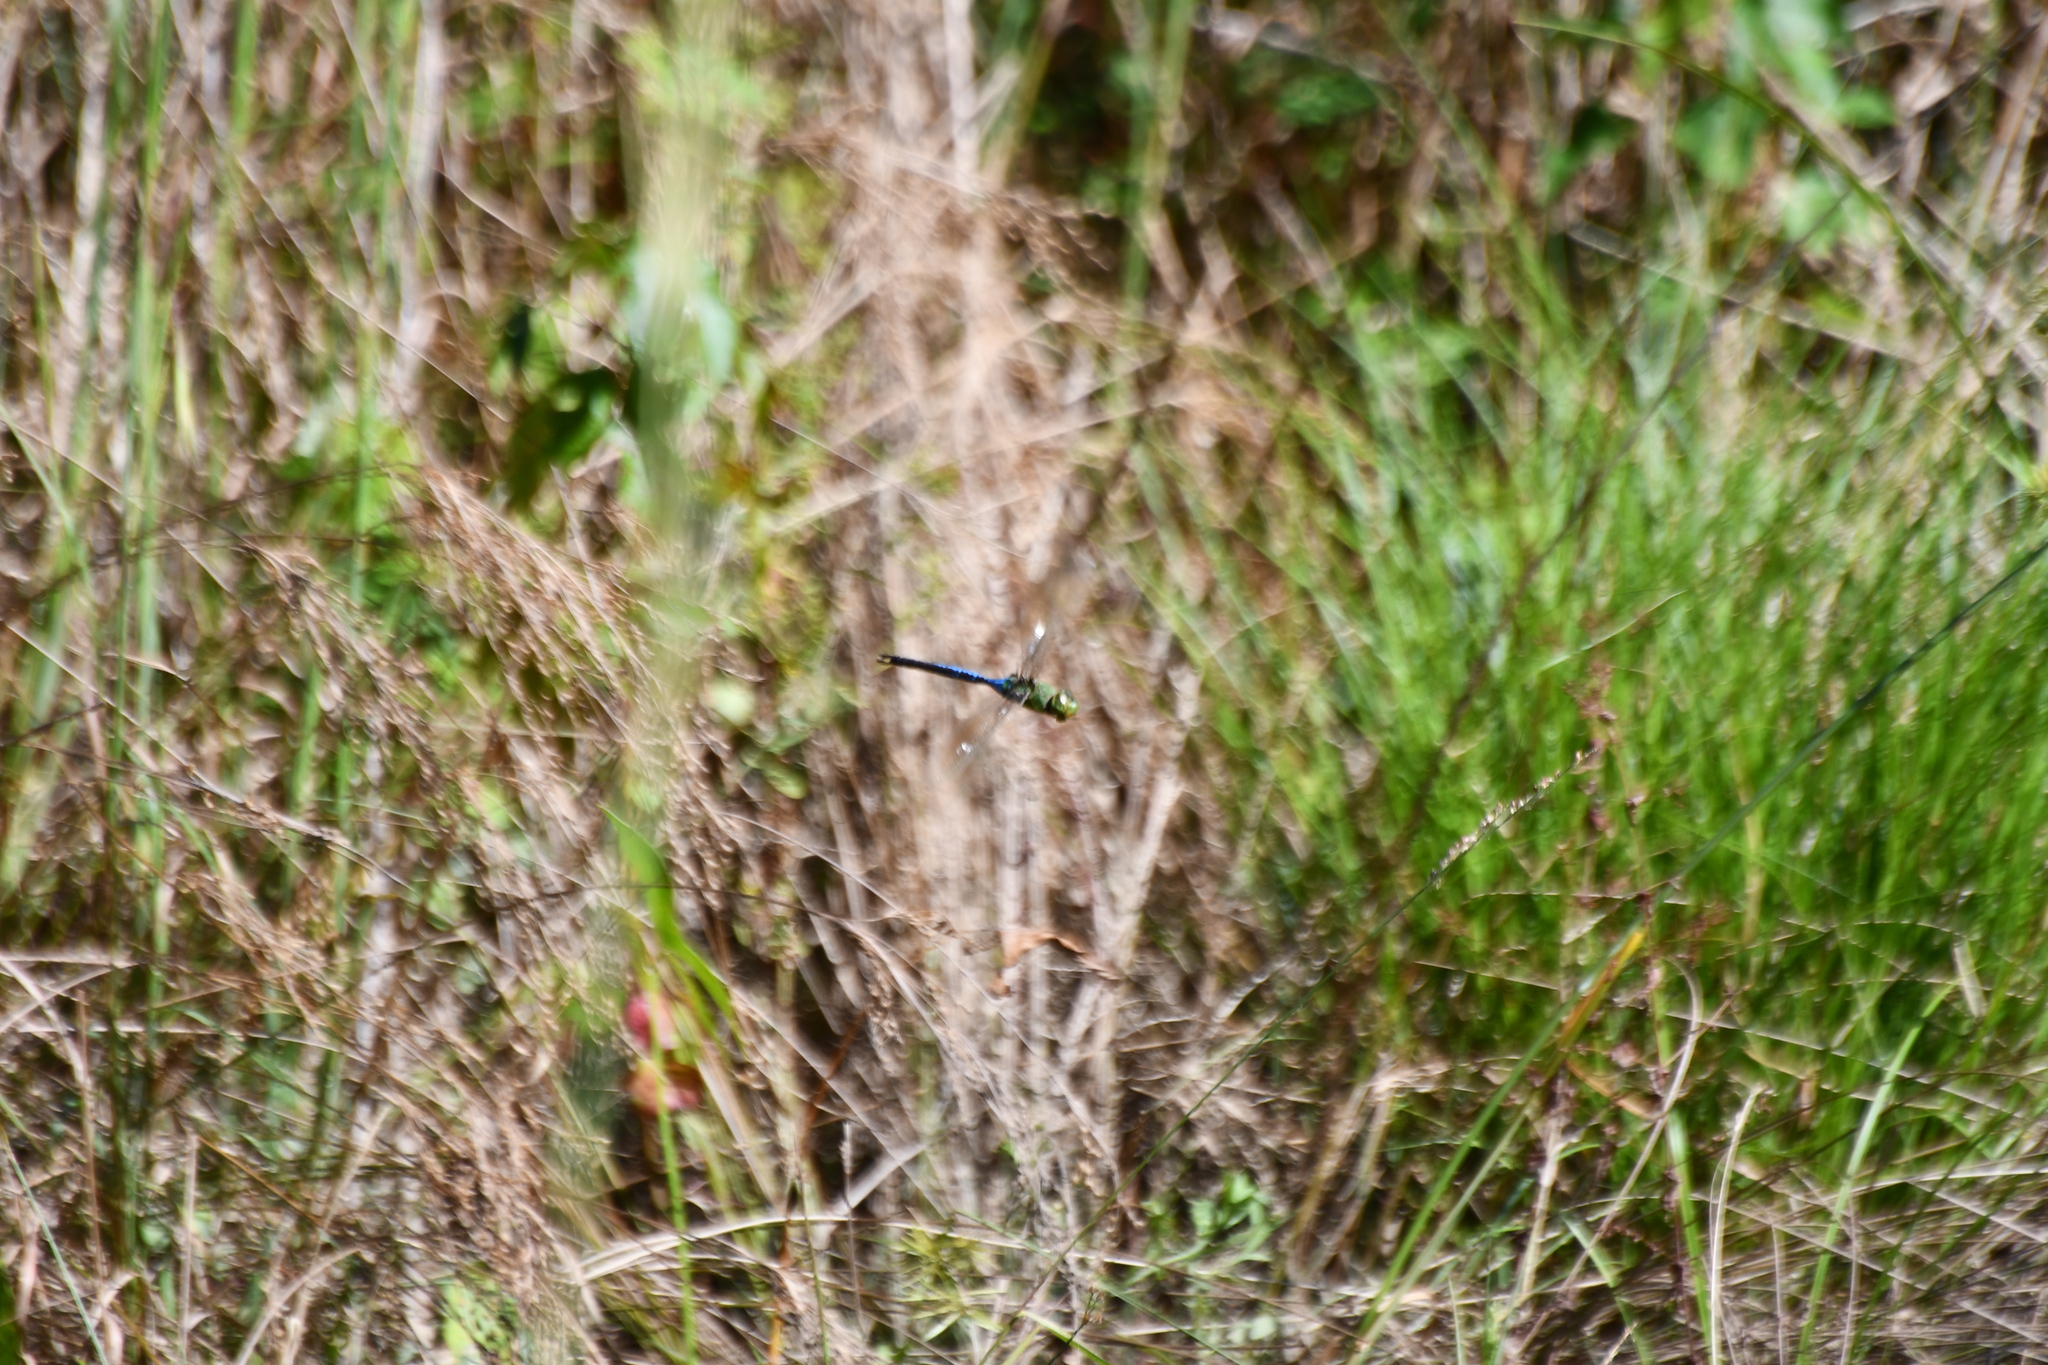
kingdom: Animalia
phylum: Arthropoda
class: Insecta
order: Odonata
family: Aeshnidae
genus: Anax
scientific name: Anax junius
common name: Common green darner
